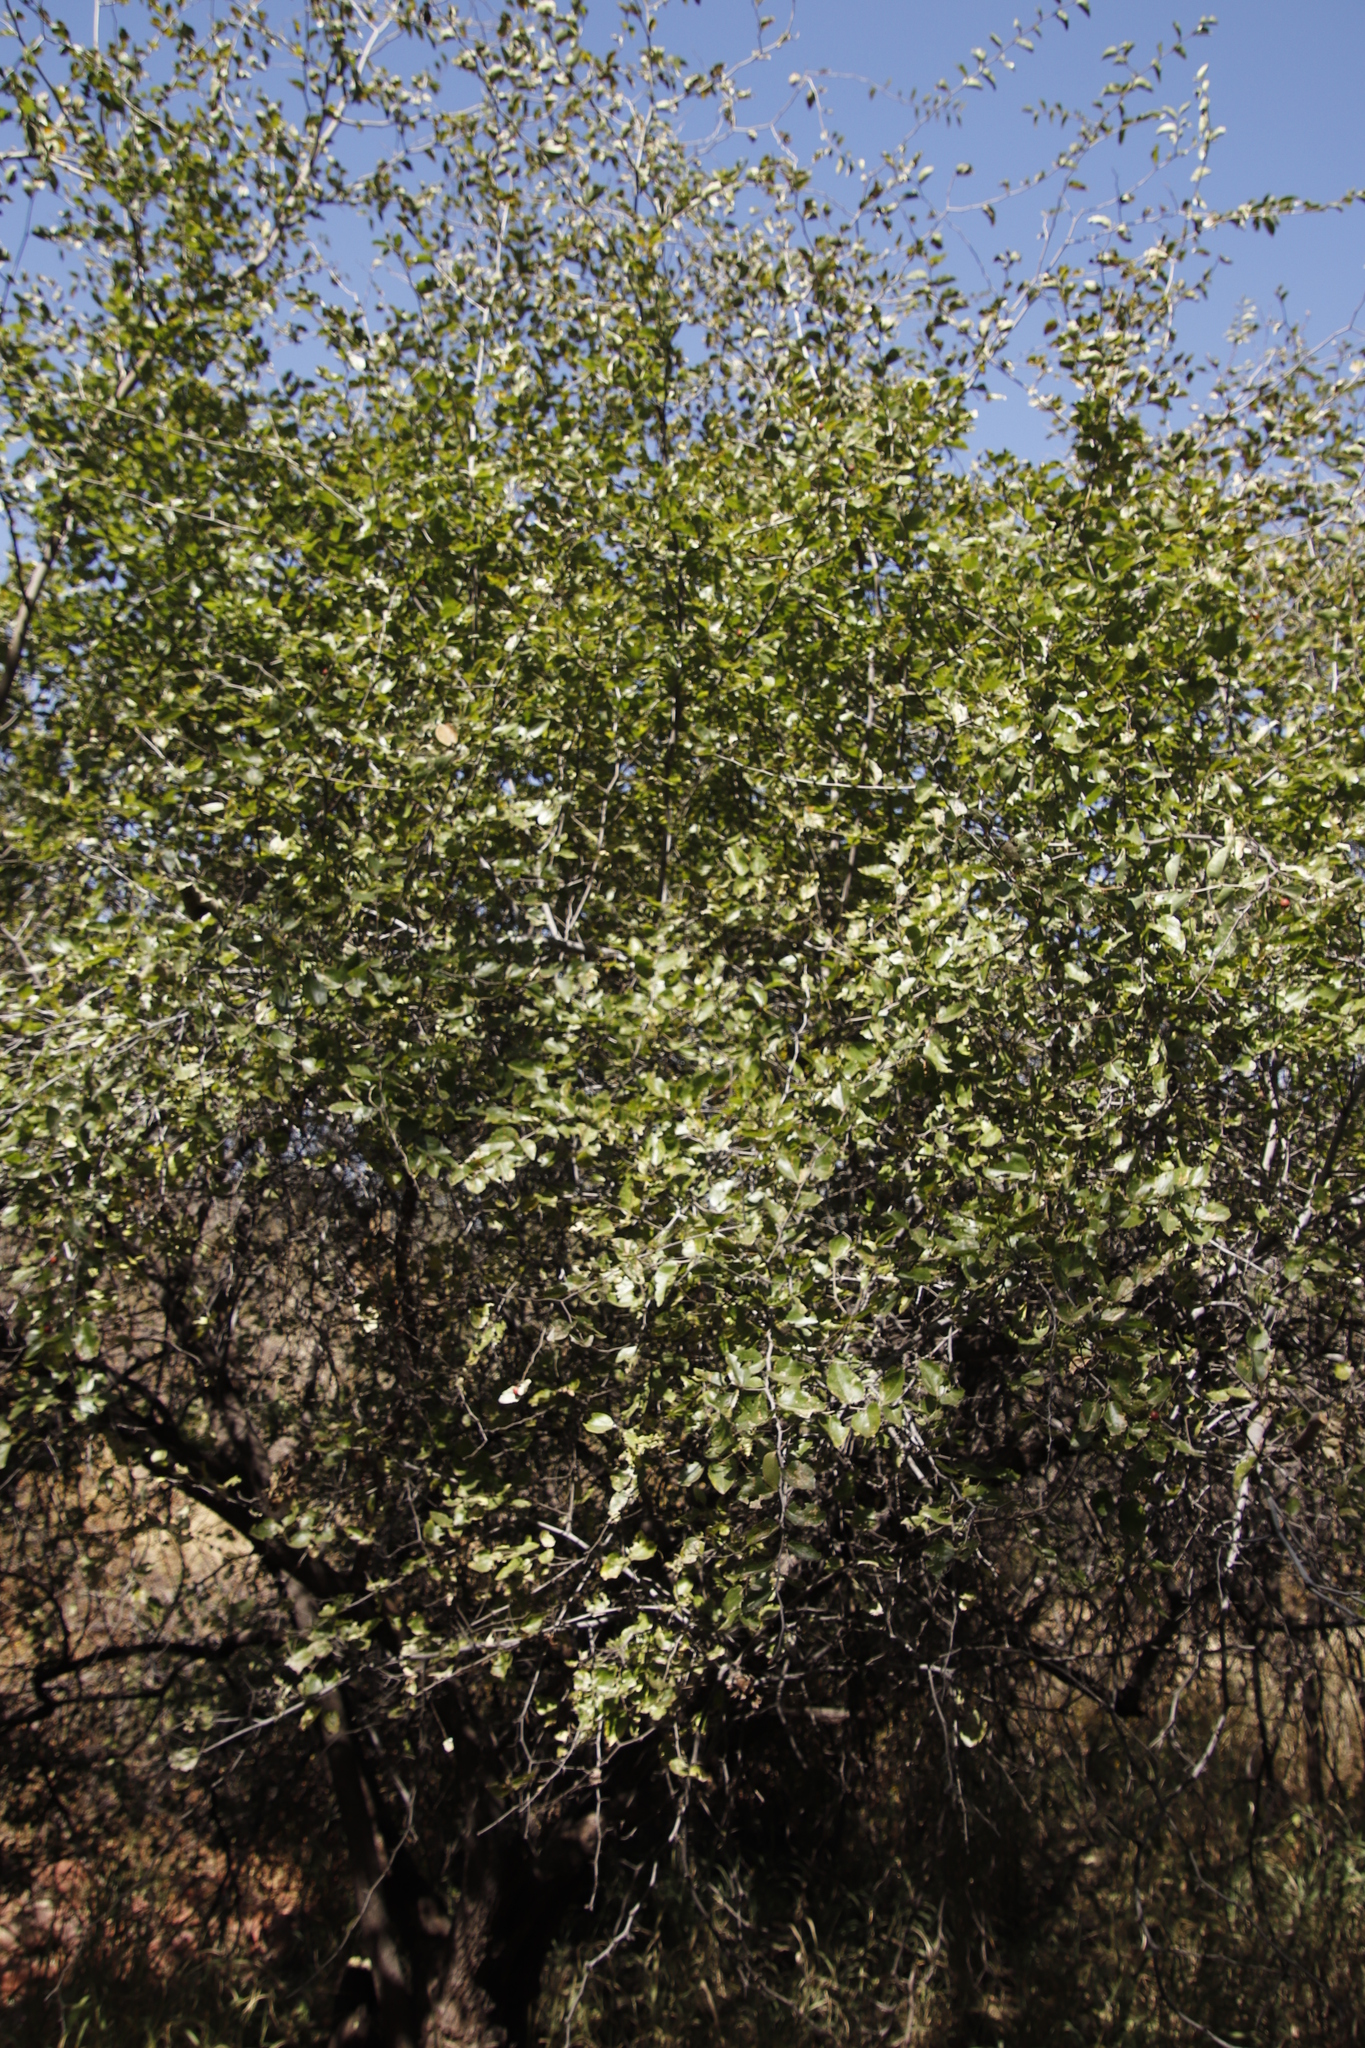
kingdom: Plantae
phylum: Tracheophyta
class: Magnoliopsida
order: Rosales
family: Rhamnaceae
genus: Ziziphus
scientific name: Ziziphus mucronata
